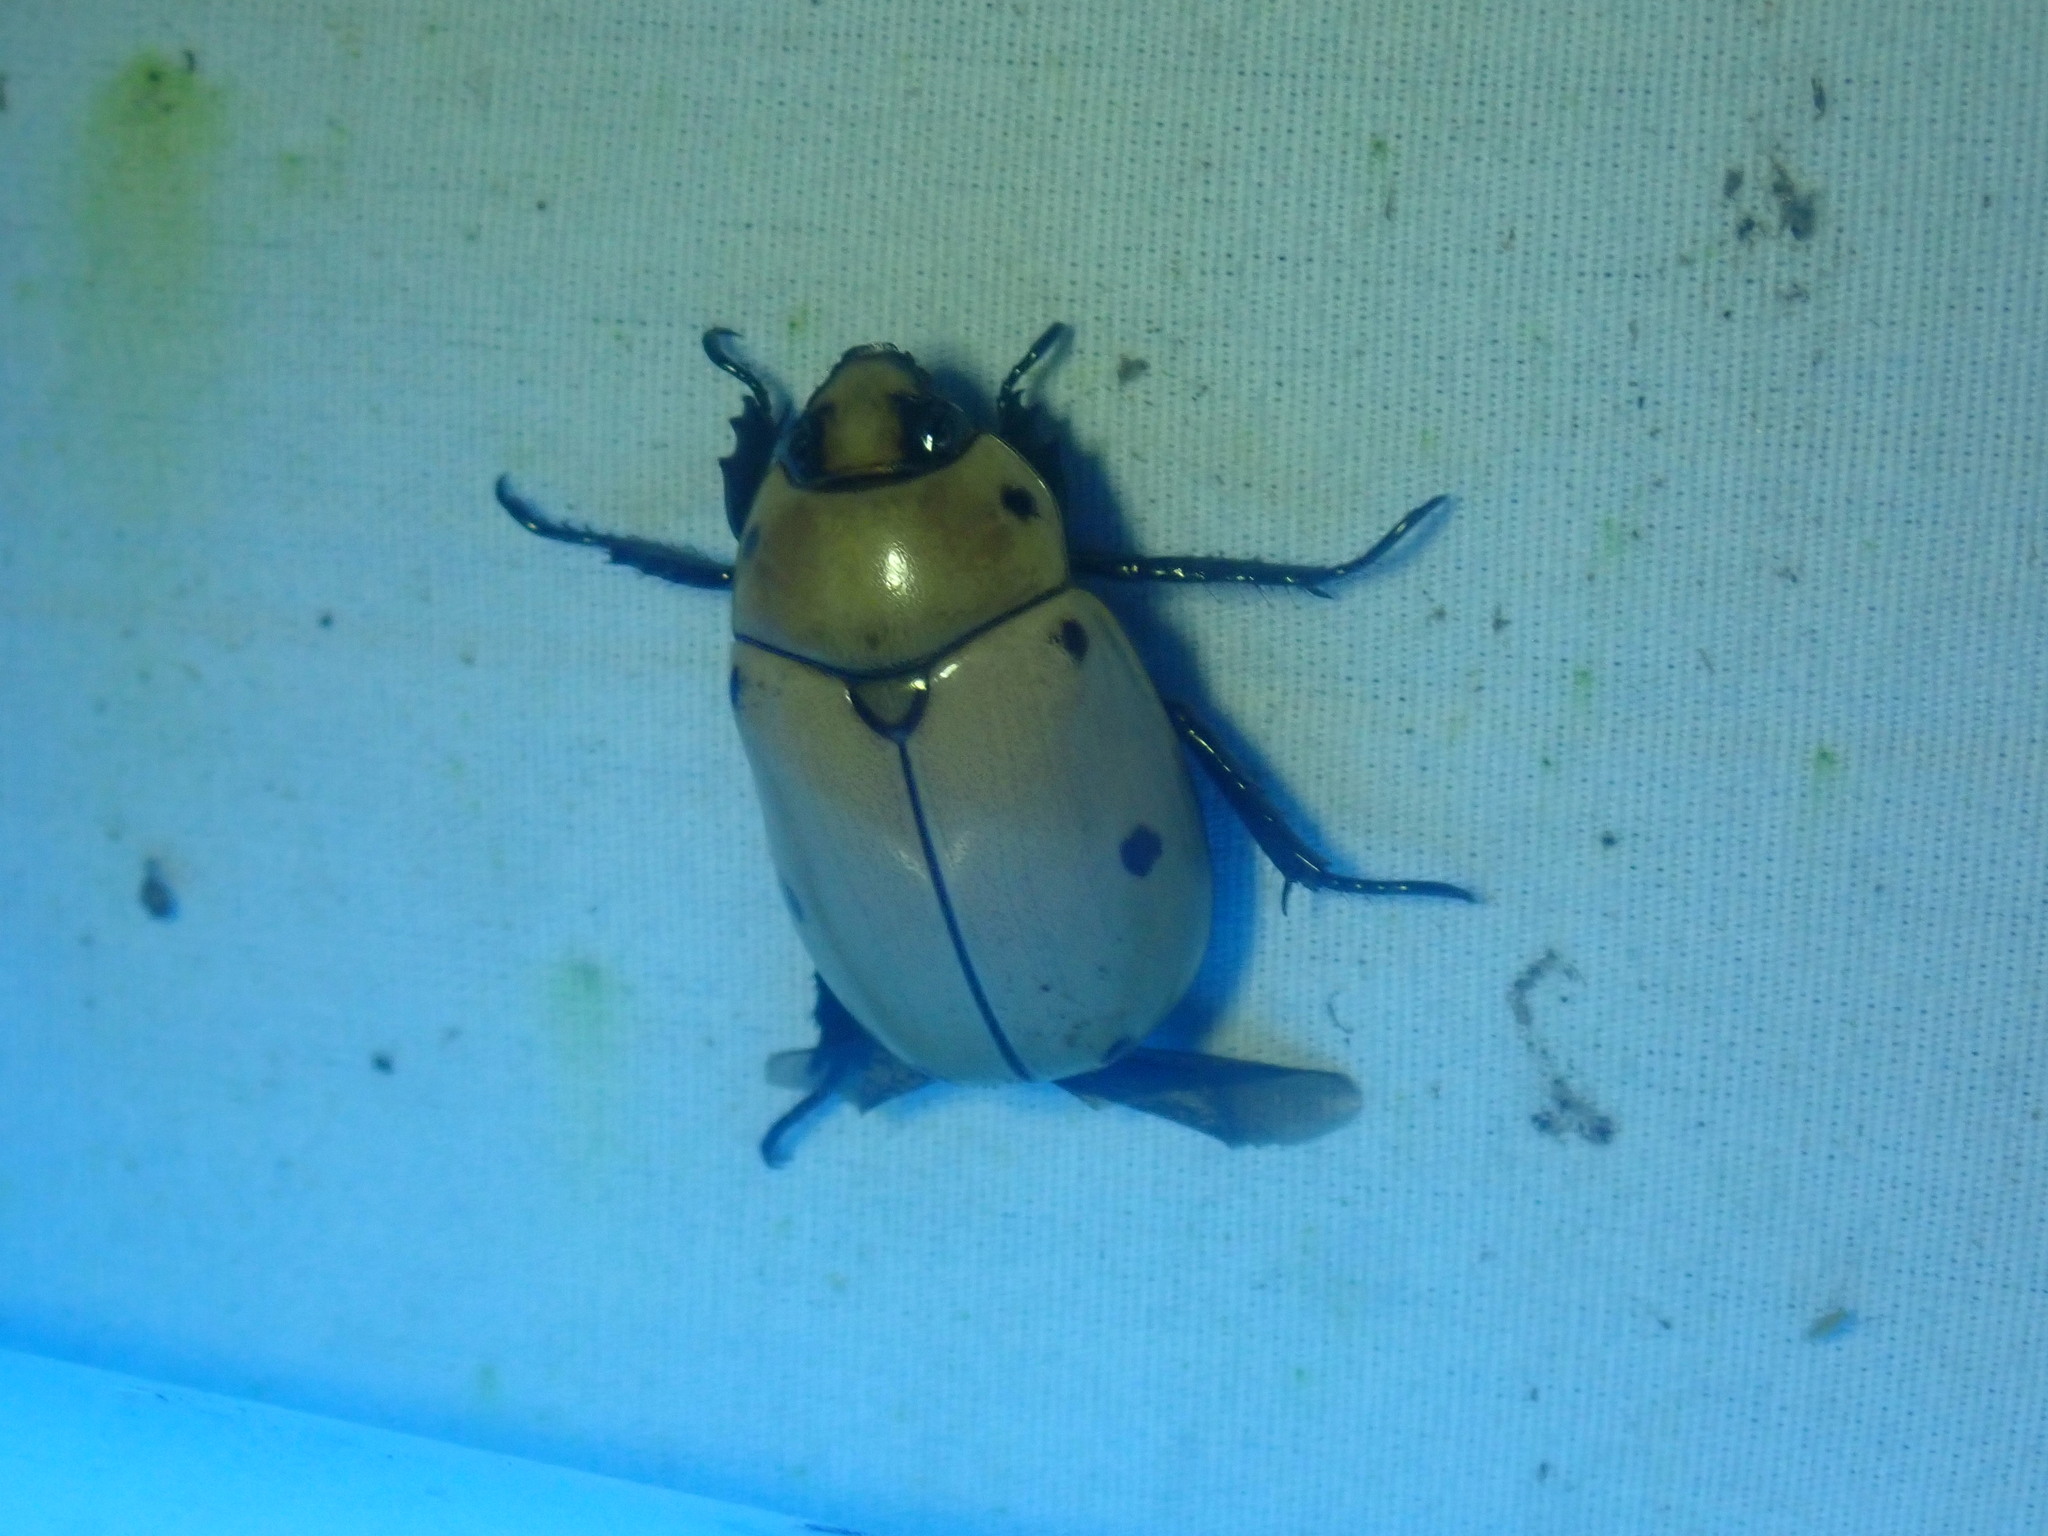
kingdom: Animalia
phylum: Arthropoda
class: Insecta
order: Coleoptera
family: Scarabaeidae
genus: Pelidnota
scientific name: Pelidnota punctata
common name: Grapevine beetle
